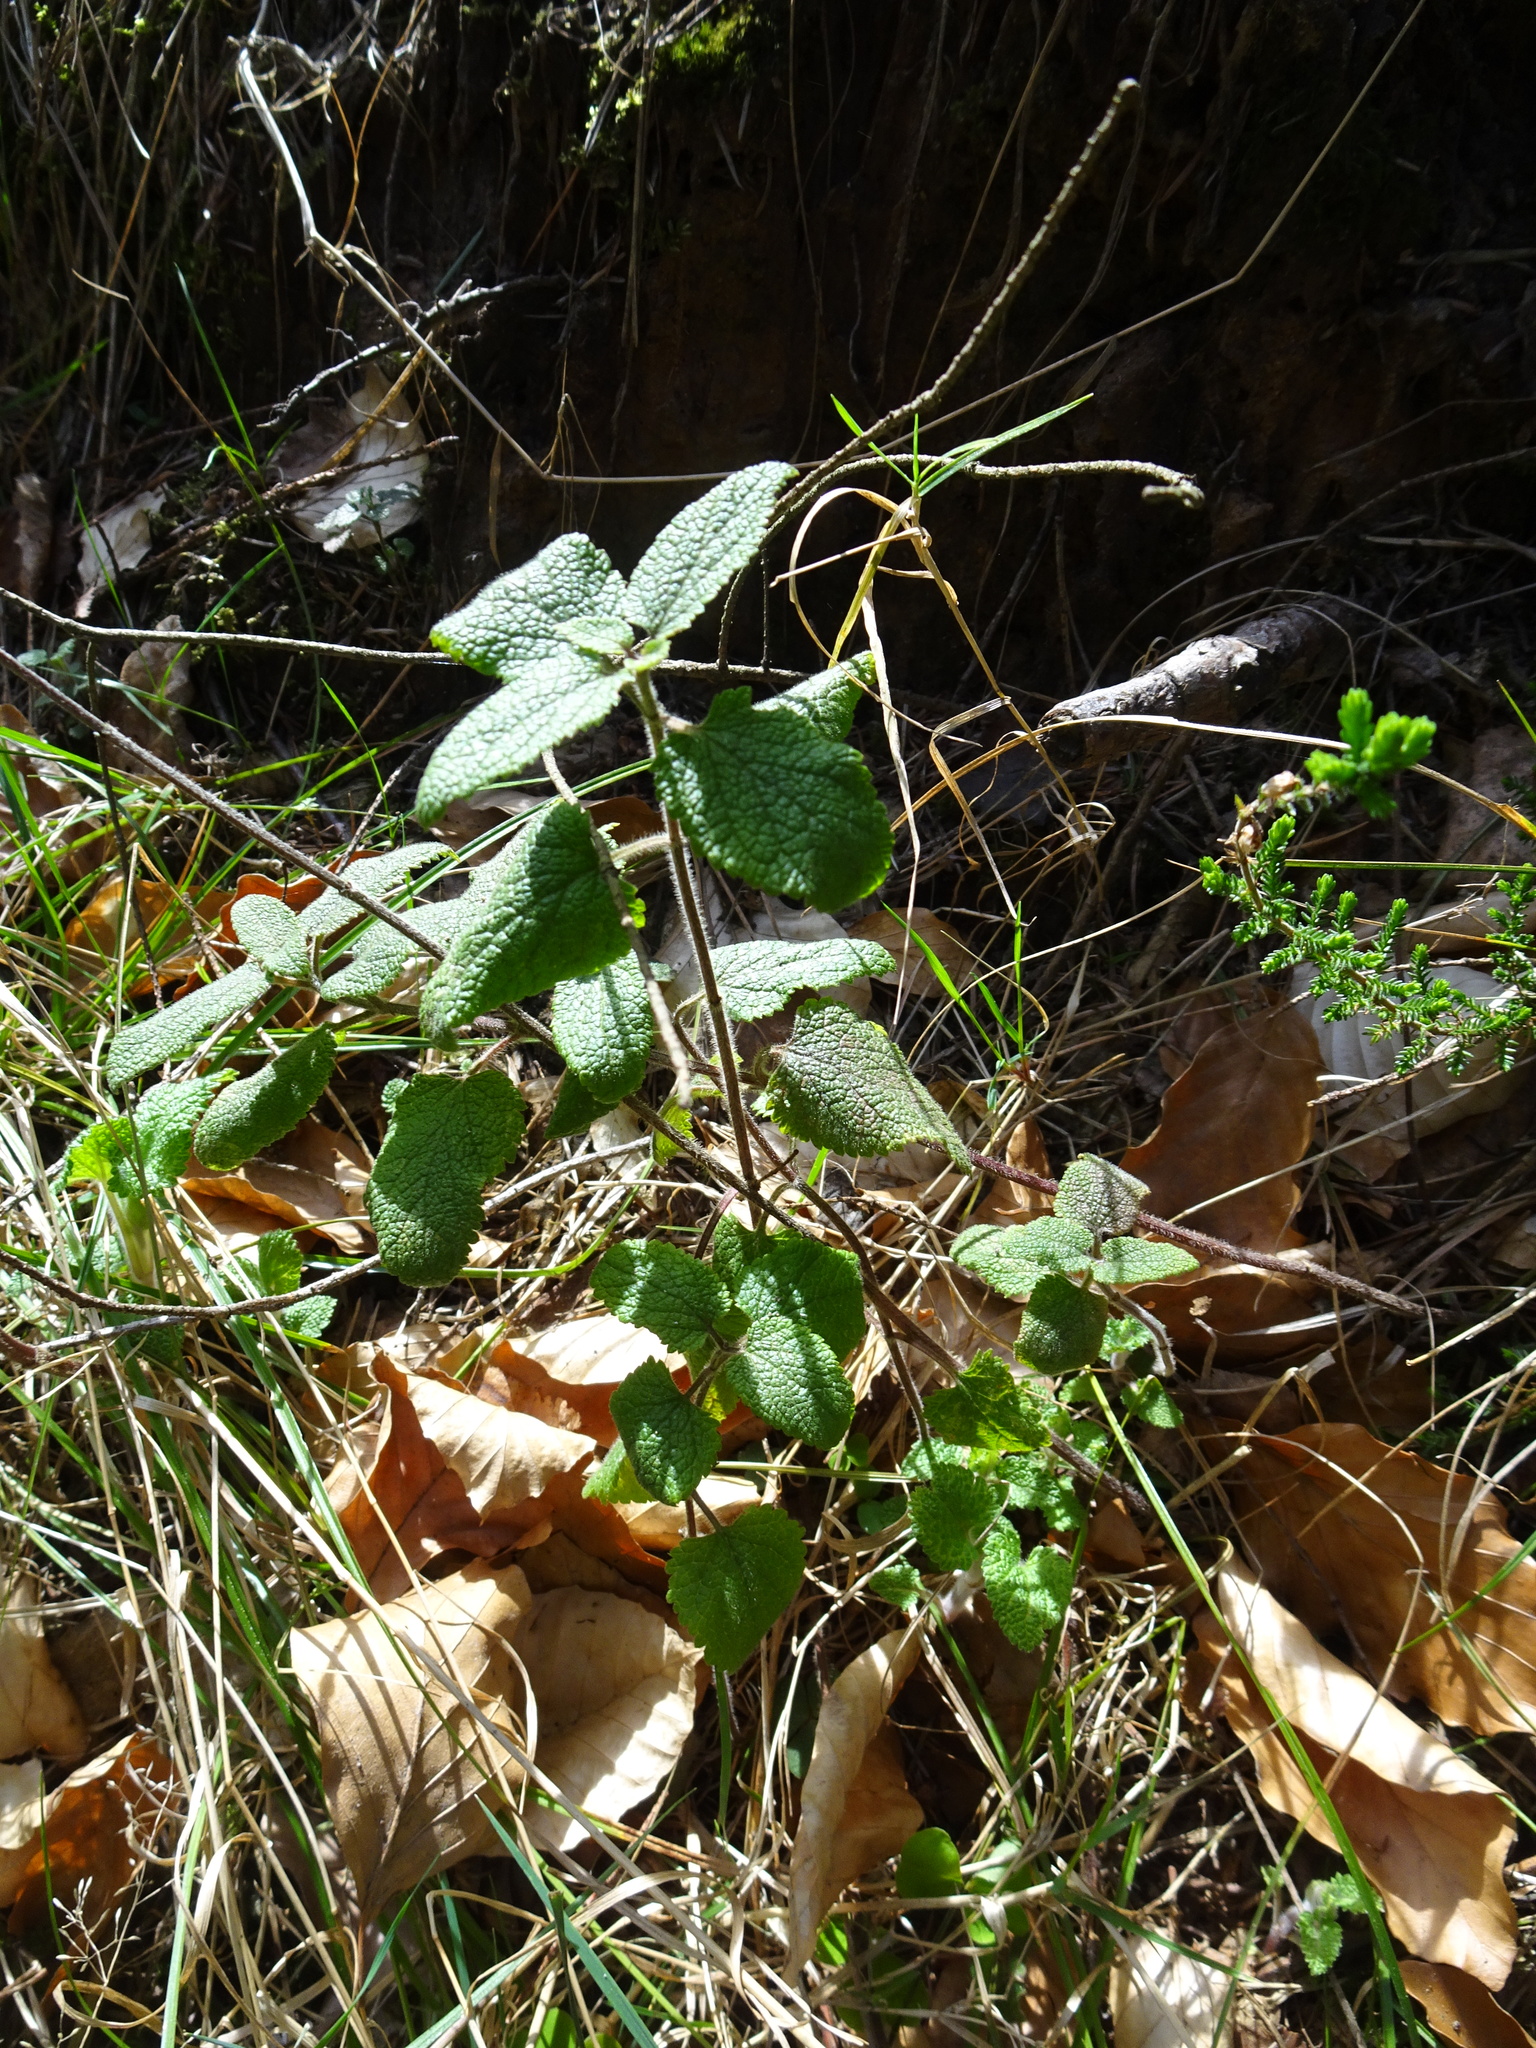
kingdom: Plantae
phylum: Tracheophyta
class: Magnoliopsida
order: Lamiales
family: Lamiaceae
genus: Teucrium
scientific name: Teucrium scorodonia
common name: Woodland germander
